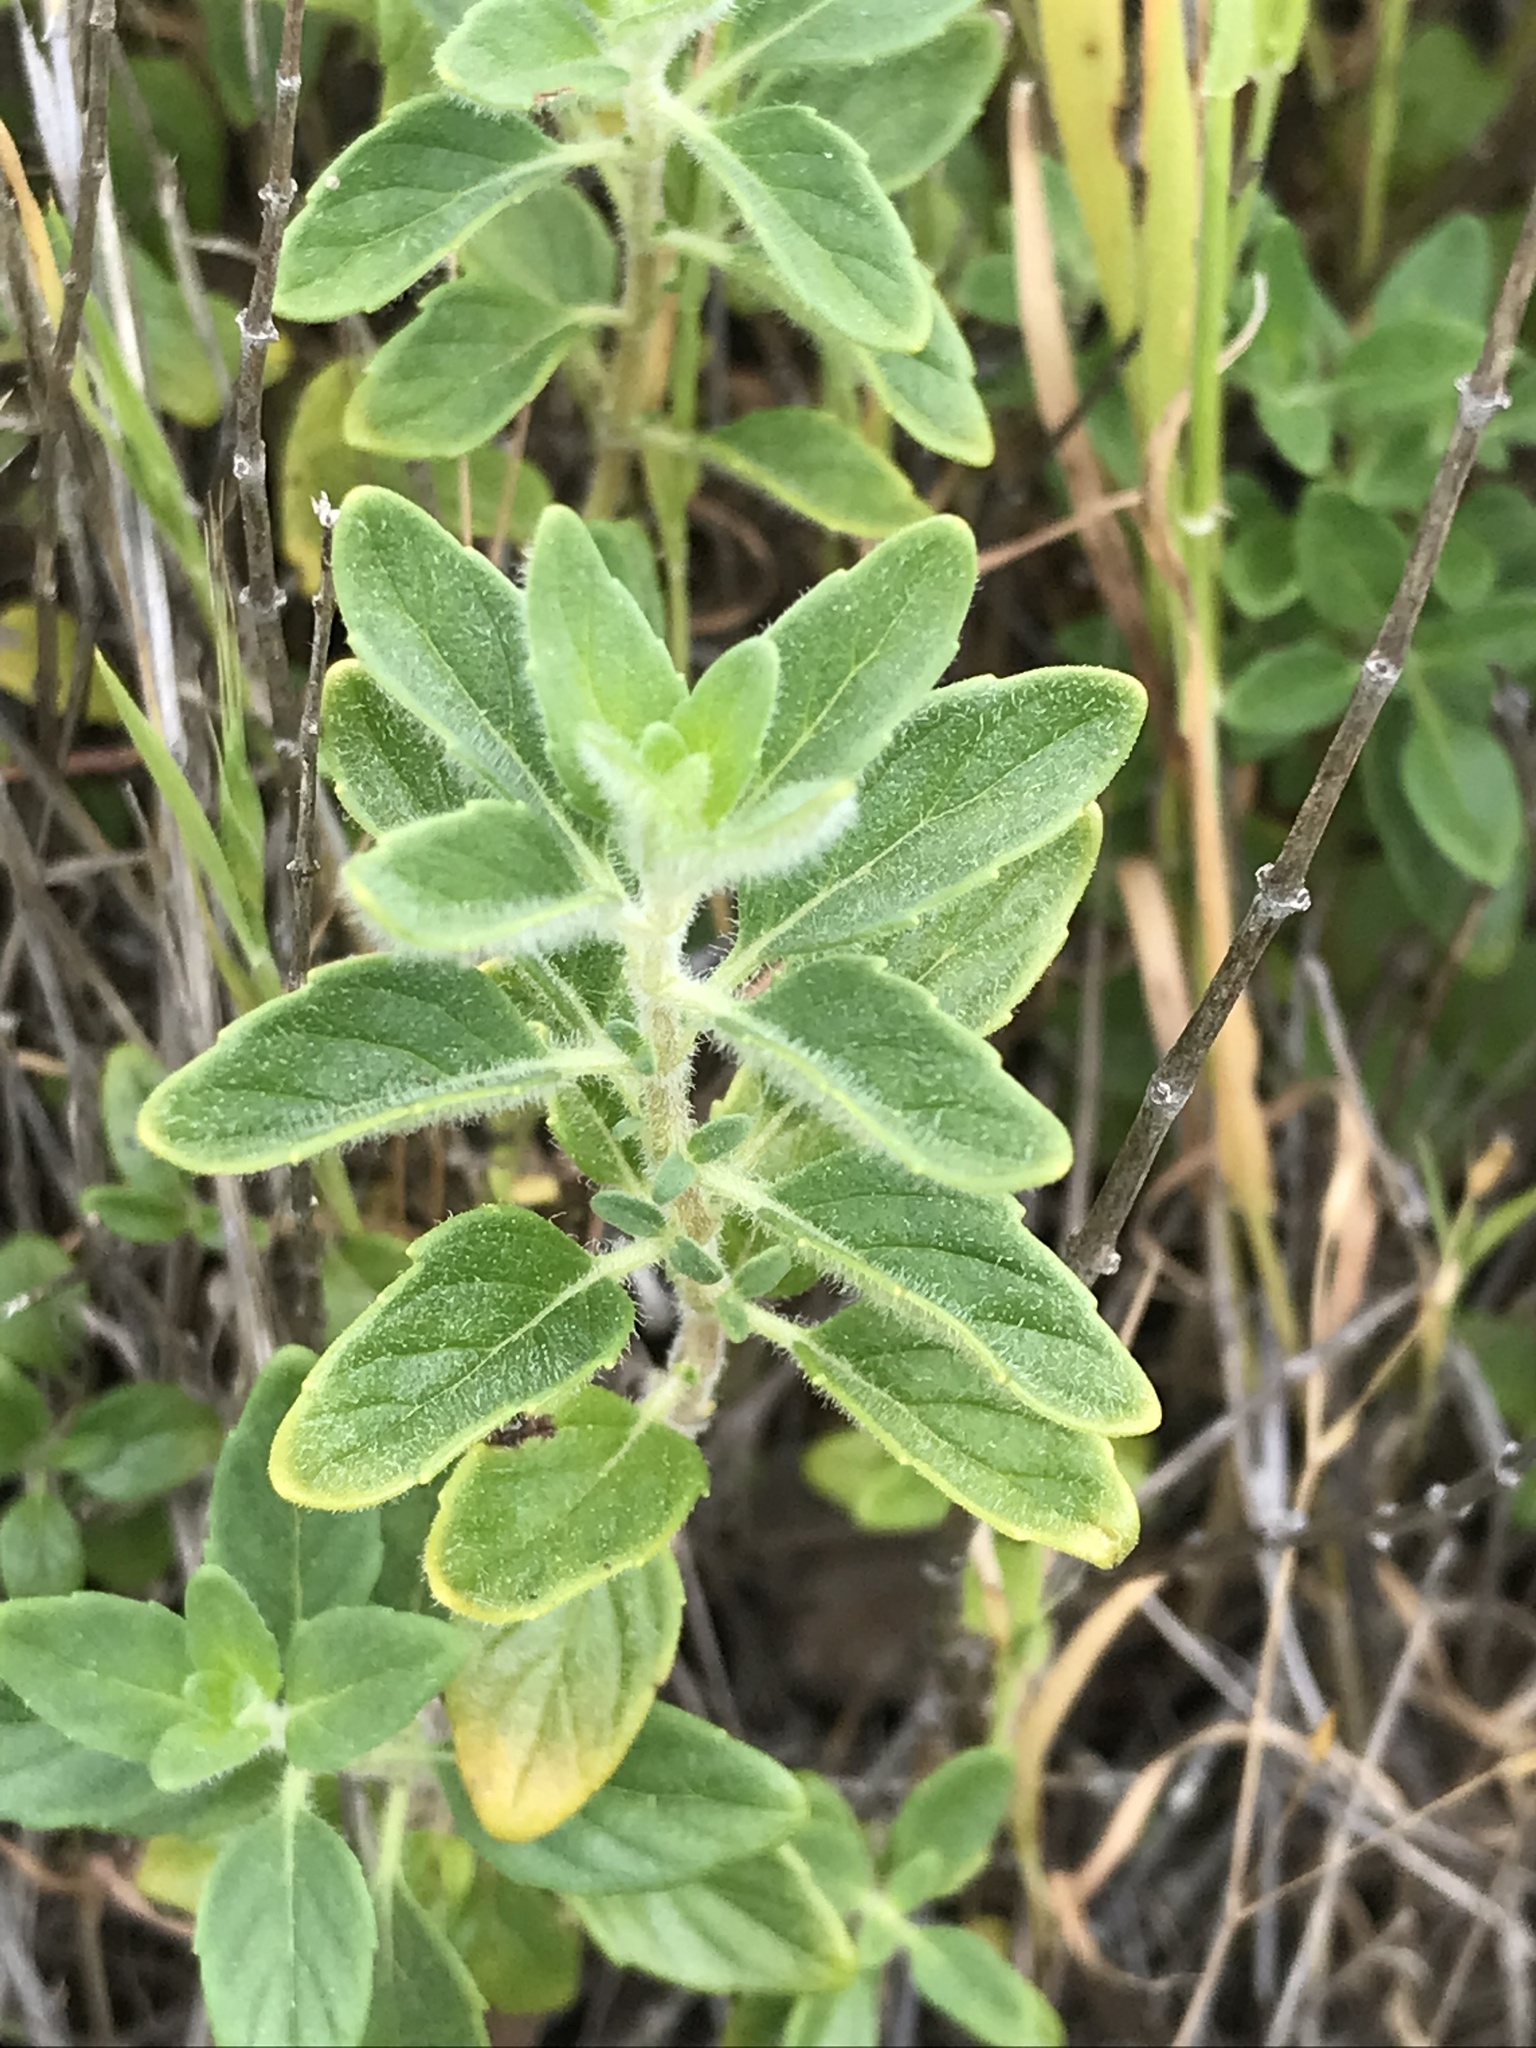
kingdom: Plantae
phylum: Tracheophyta
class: Magnoliopsida
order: Lamiales
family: Lamiaceae
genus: Monardella
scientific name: Monardella odoratissima
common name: Pacific monardella
